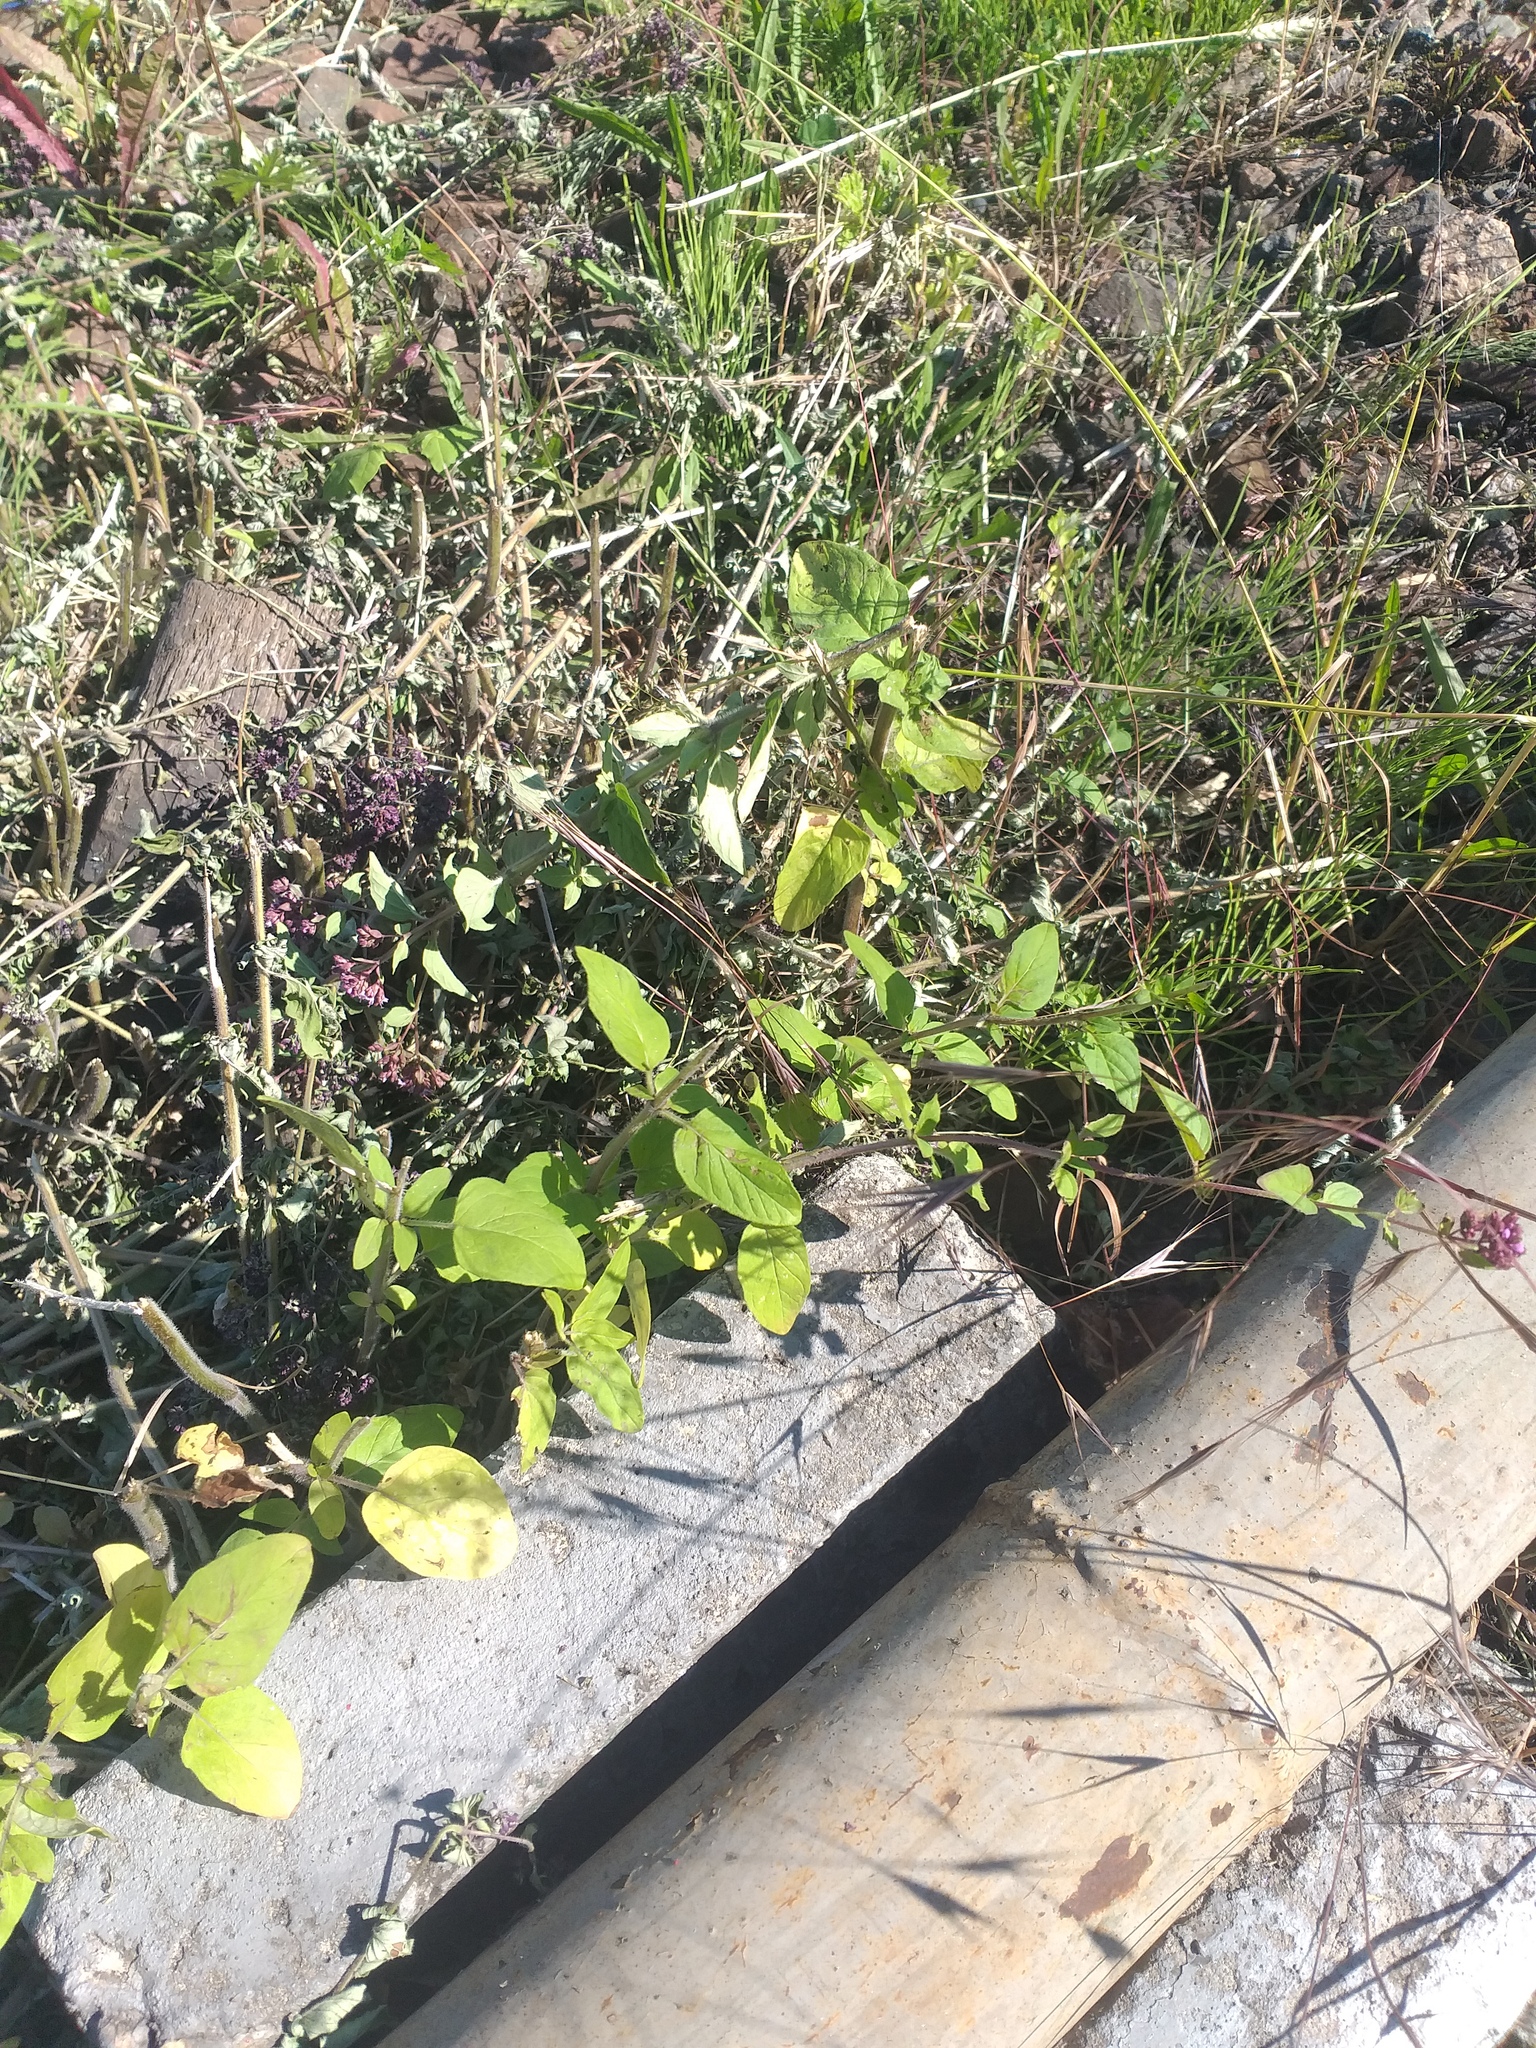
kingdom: Plantae
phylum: Tracheophyta
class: Magnoliopsida
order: Lamiales
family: Lamiaceae
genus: Origanum
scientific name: Origanum vulgare
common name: Wild marjoram
